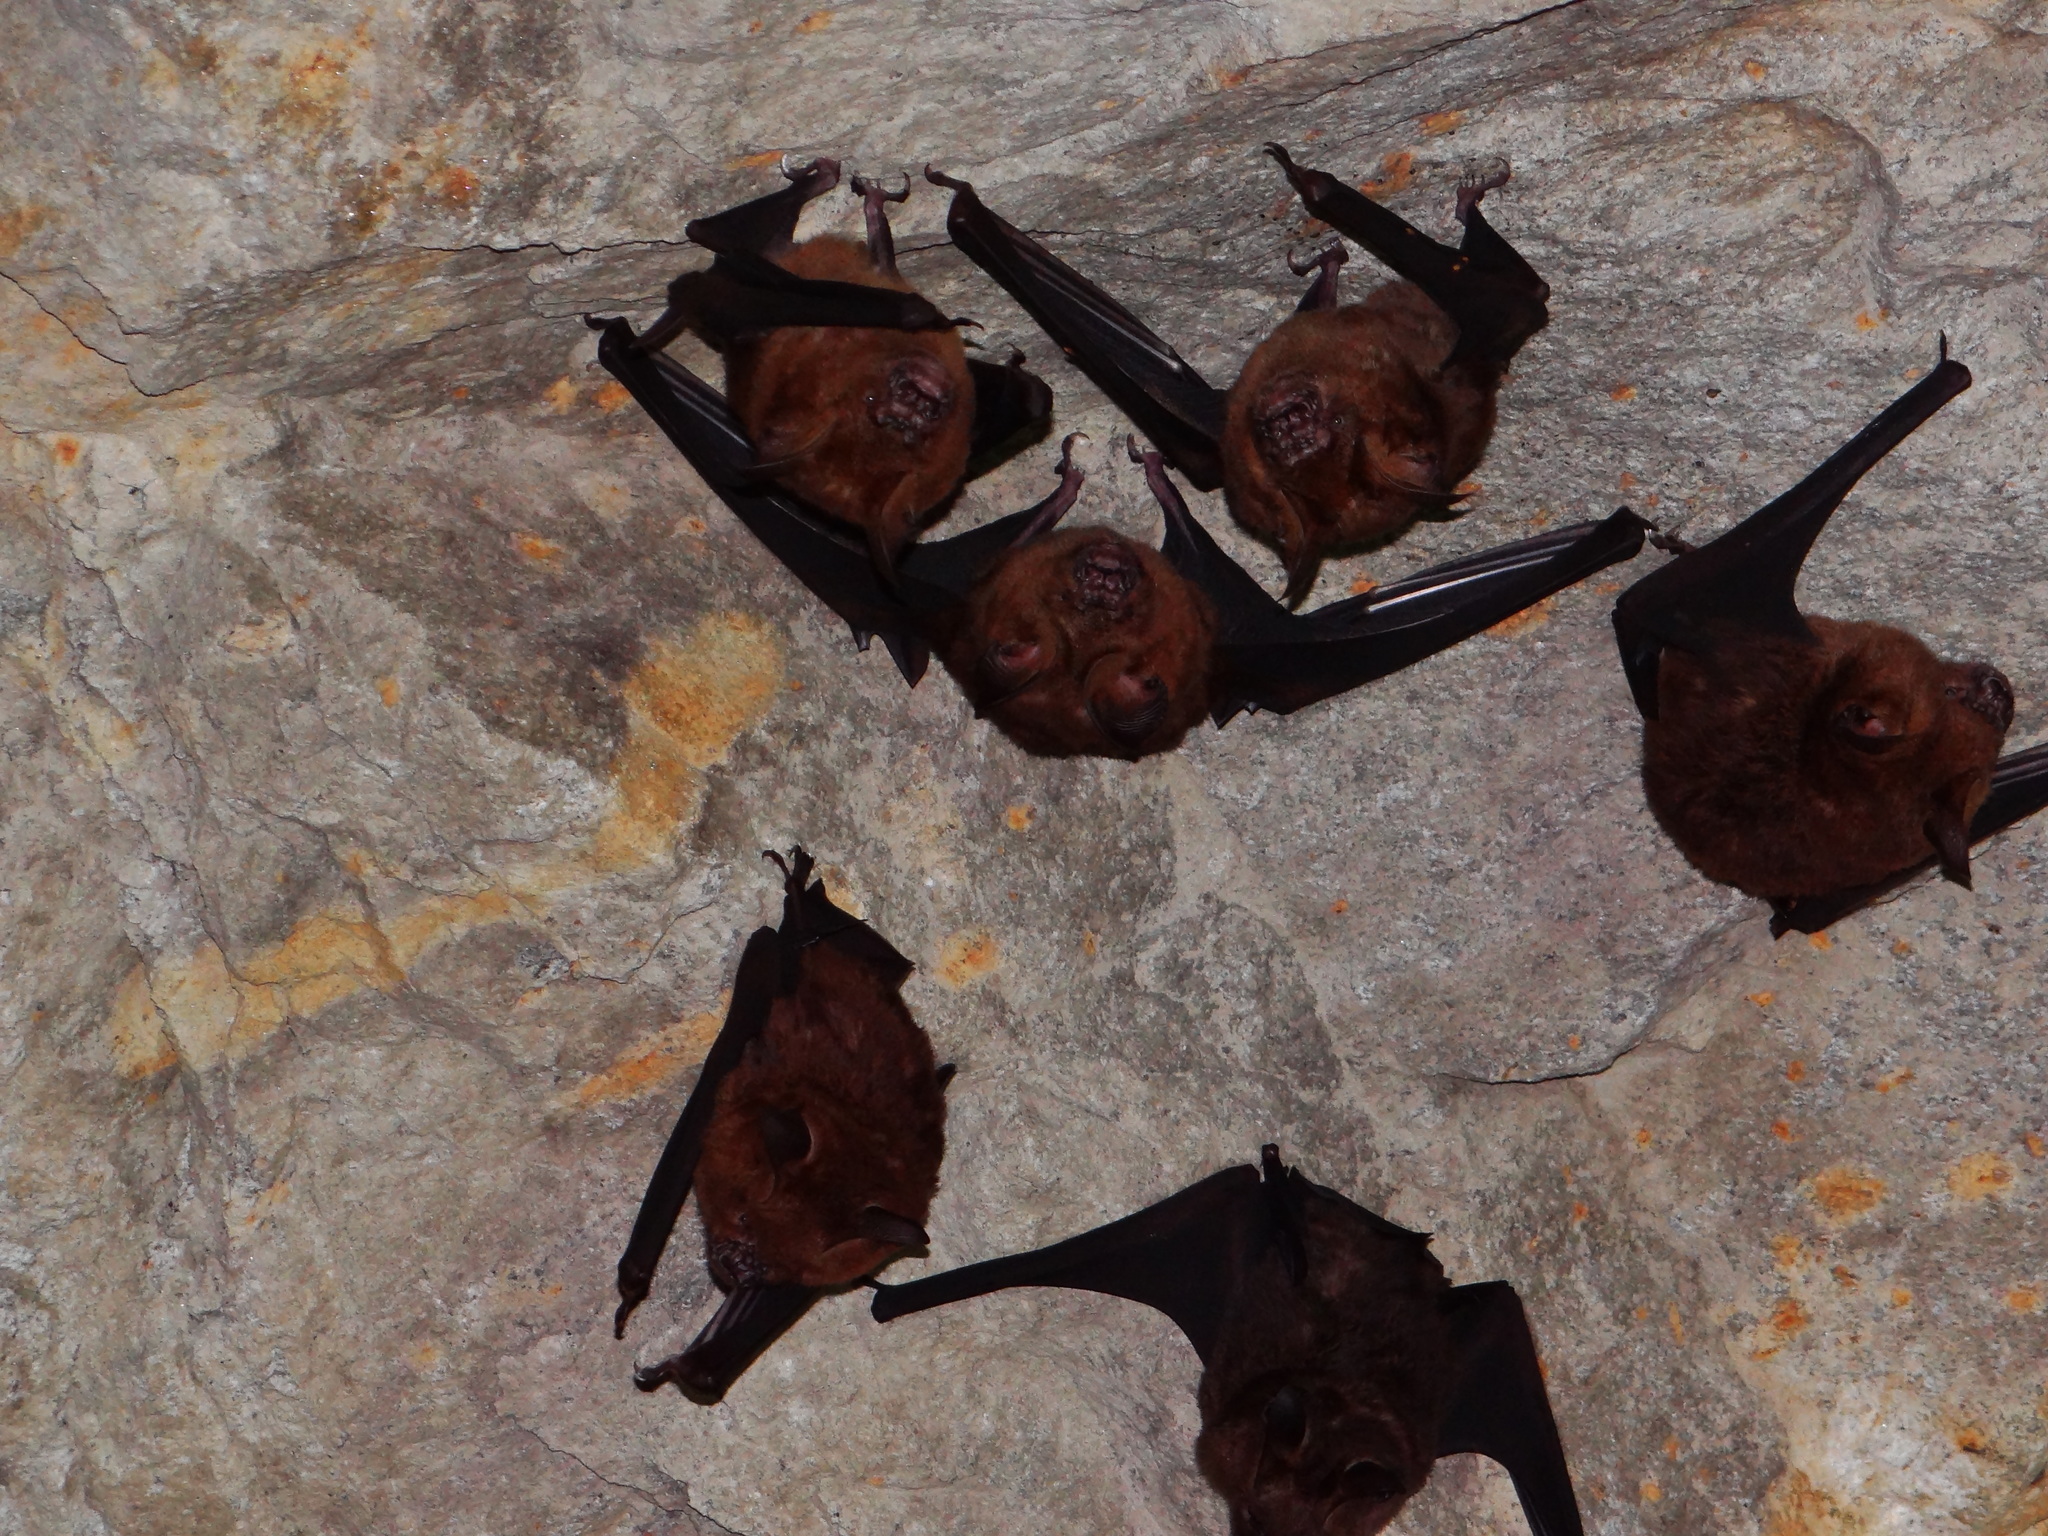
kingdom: Animalia
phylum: Chordata
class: Mammalia
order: Chiroptera
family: Hipposideridae
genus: Hipposideros
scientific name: Hipposideros armiger
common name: Great leaf-nosed bat
